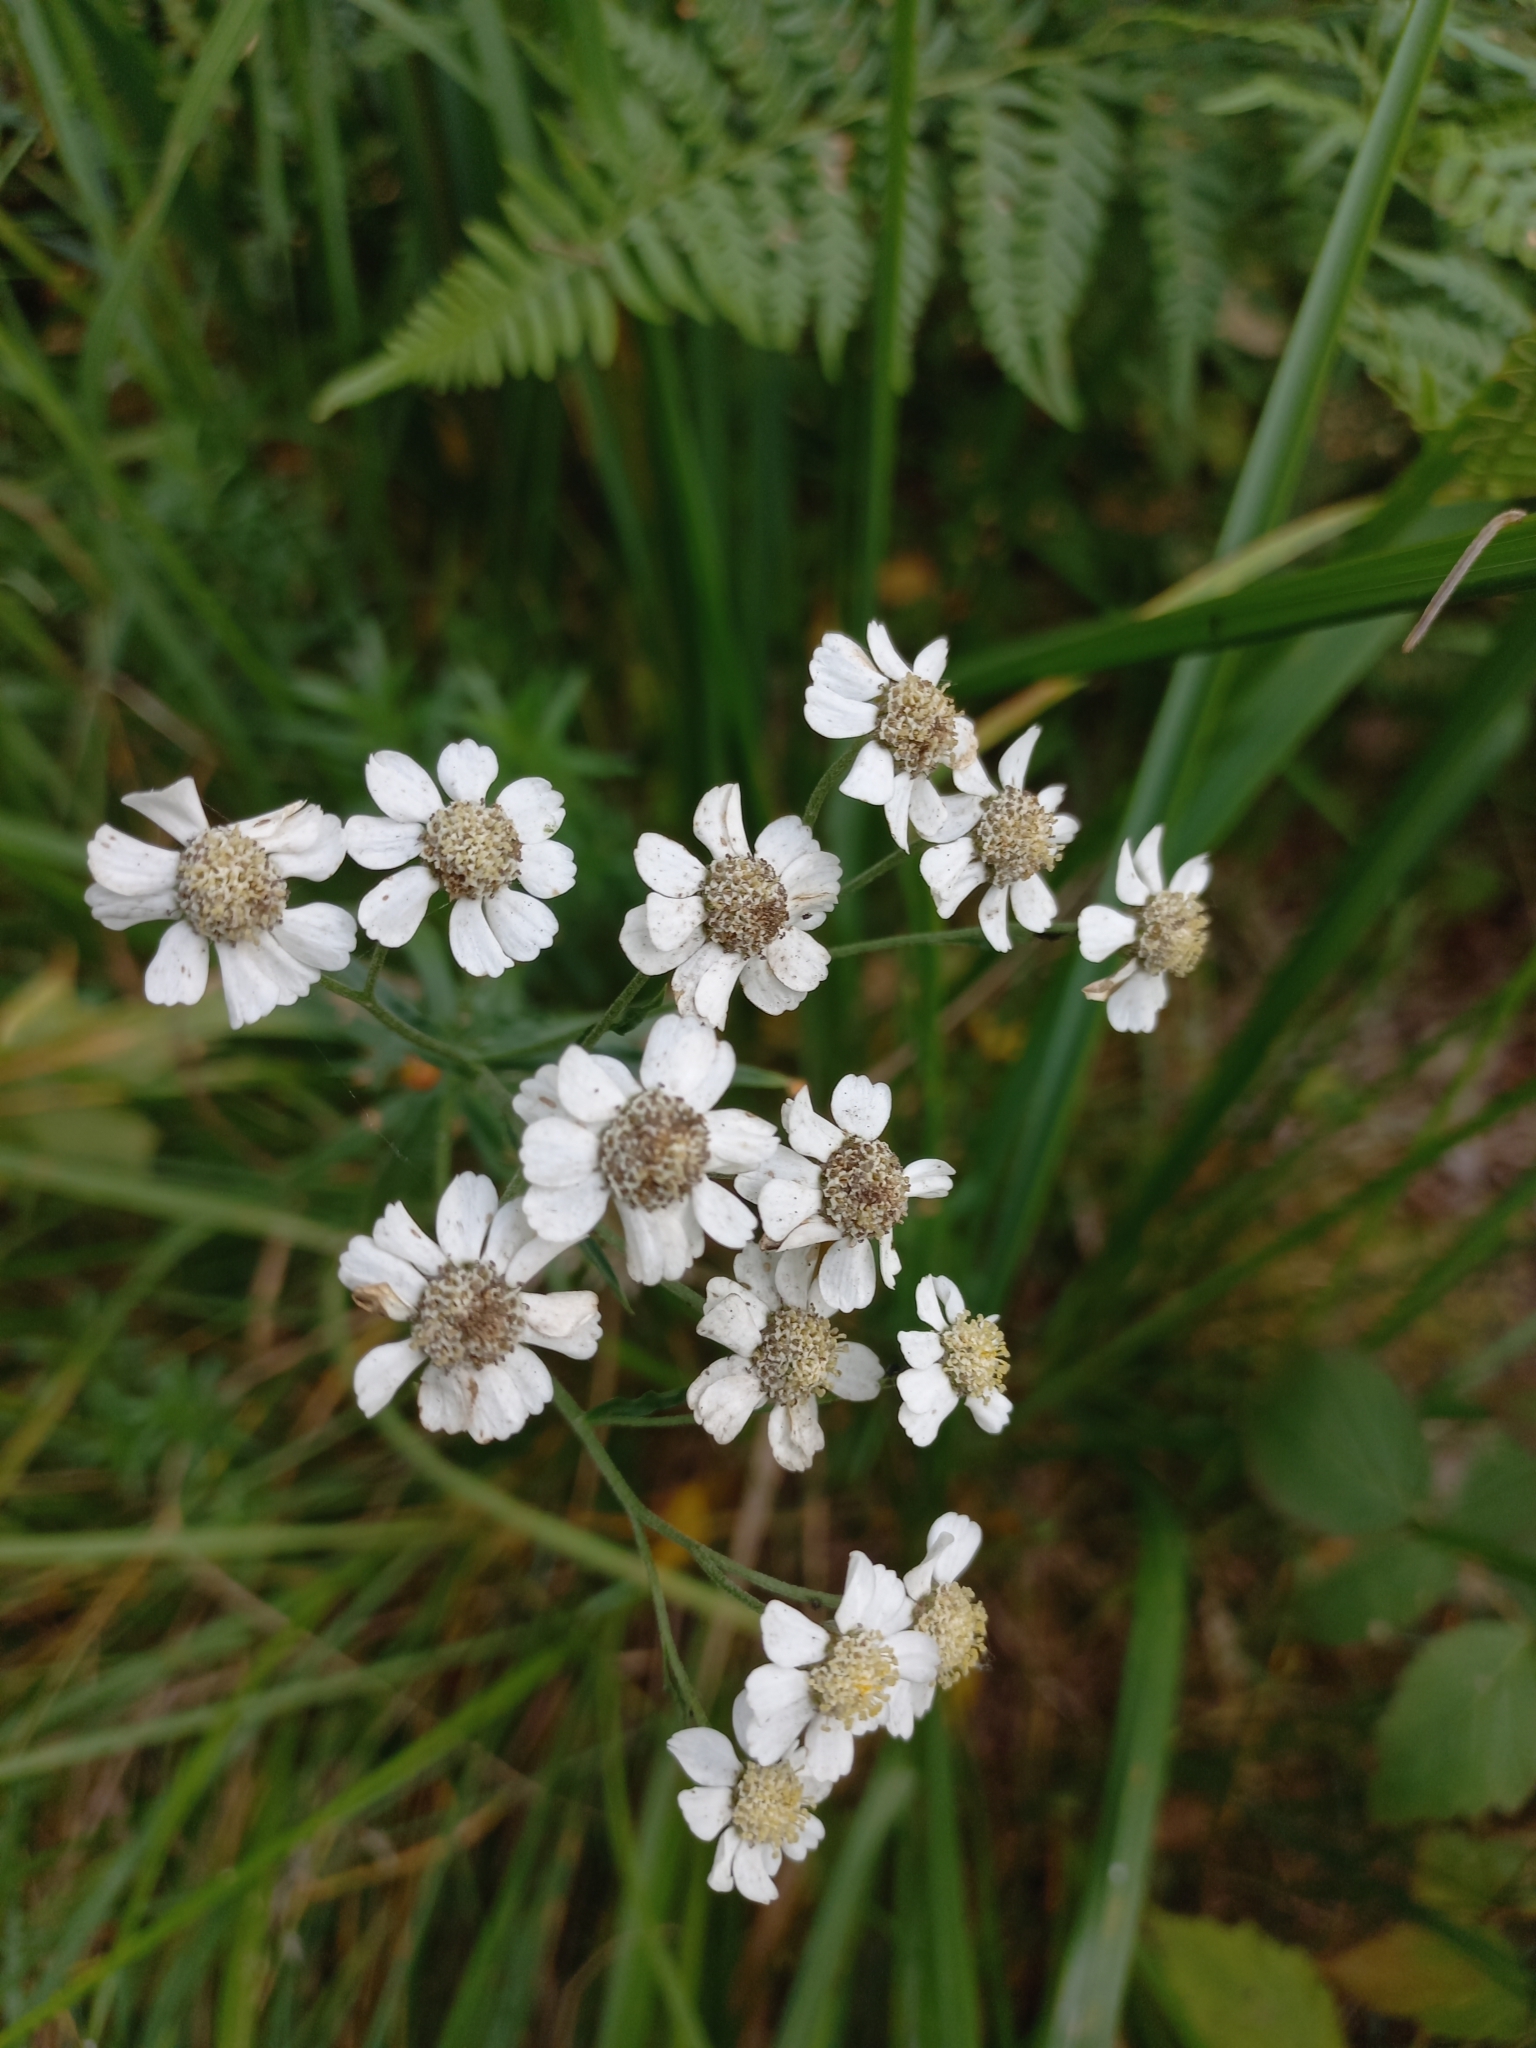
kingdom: Plantae
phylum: Tracheophyta
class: Magnoliopsida
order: Asterales
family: Asteraceae
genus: Achillea
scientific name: Achillea ptarmica
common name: Sneezeweed
